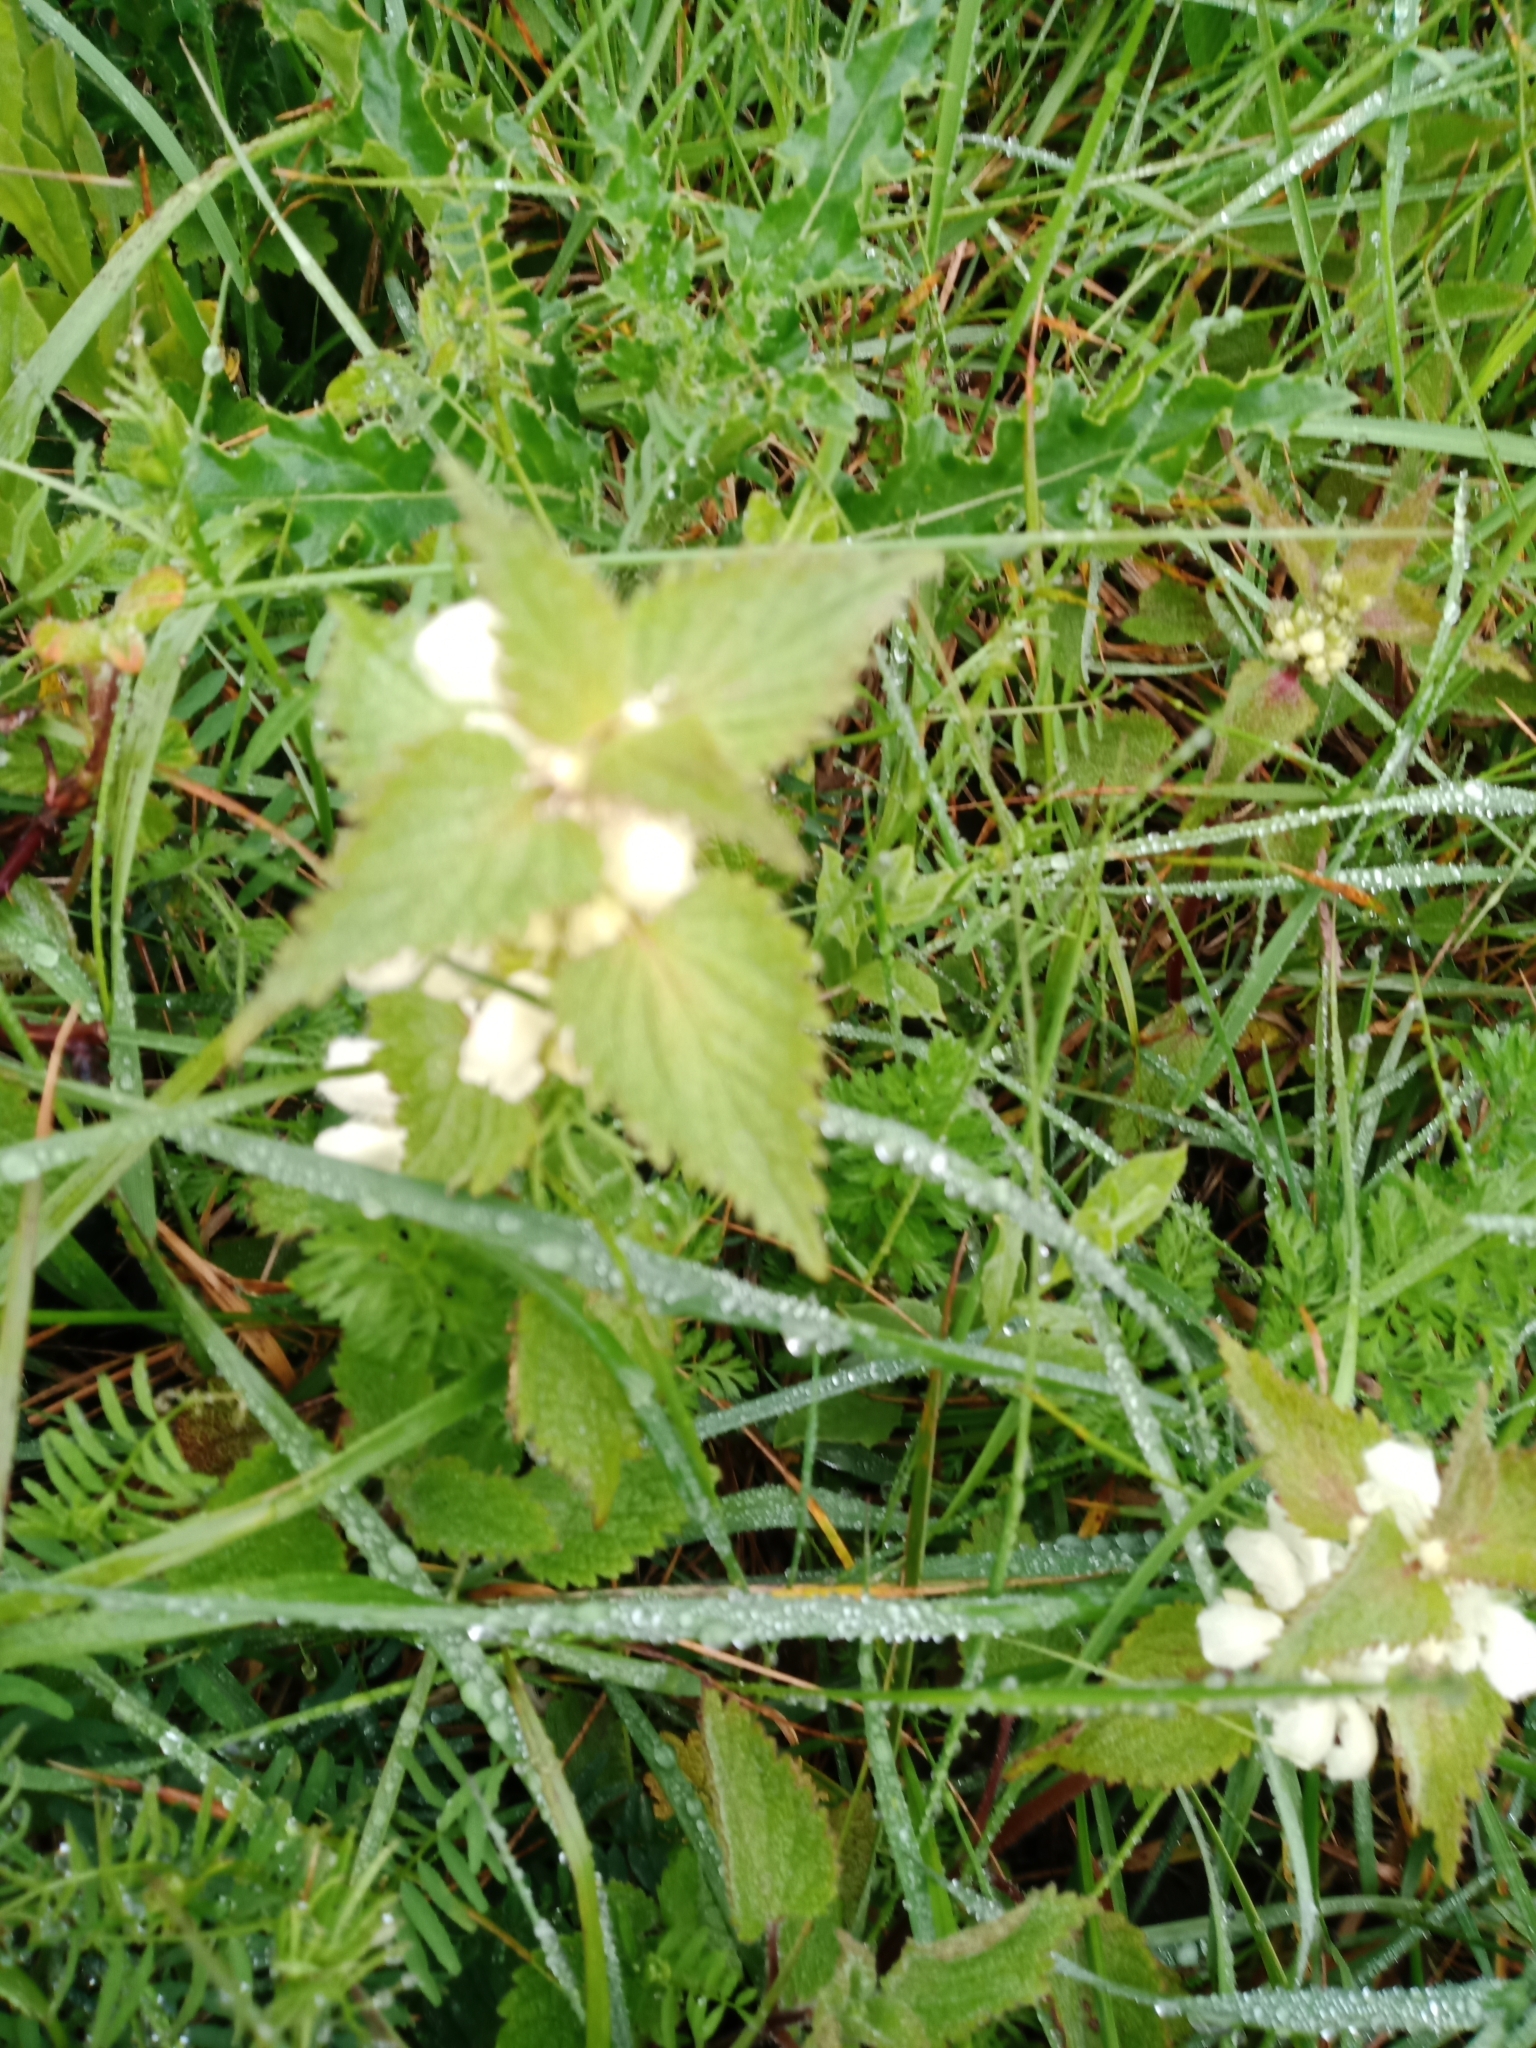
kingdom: Plantae
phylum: Tracheophyta
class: Magnoliopsida
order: Lamiales
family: Lamiaceae
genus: Lamium
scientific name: Lamium album
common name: White dead-nettle
